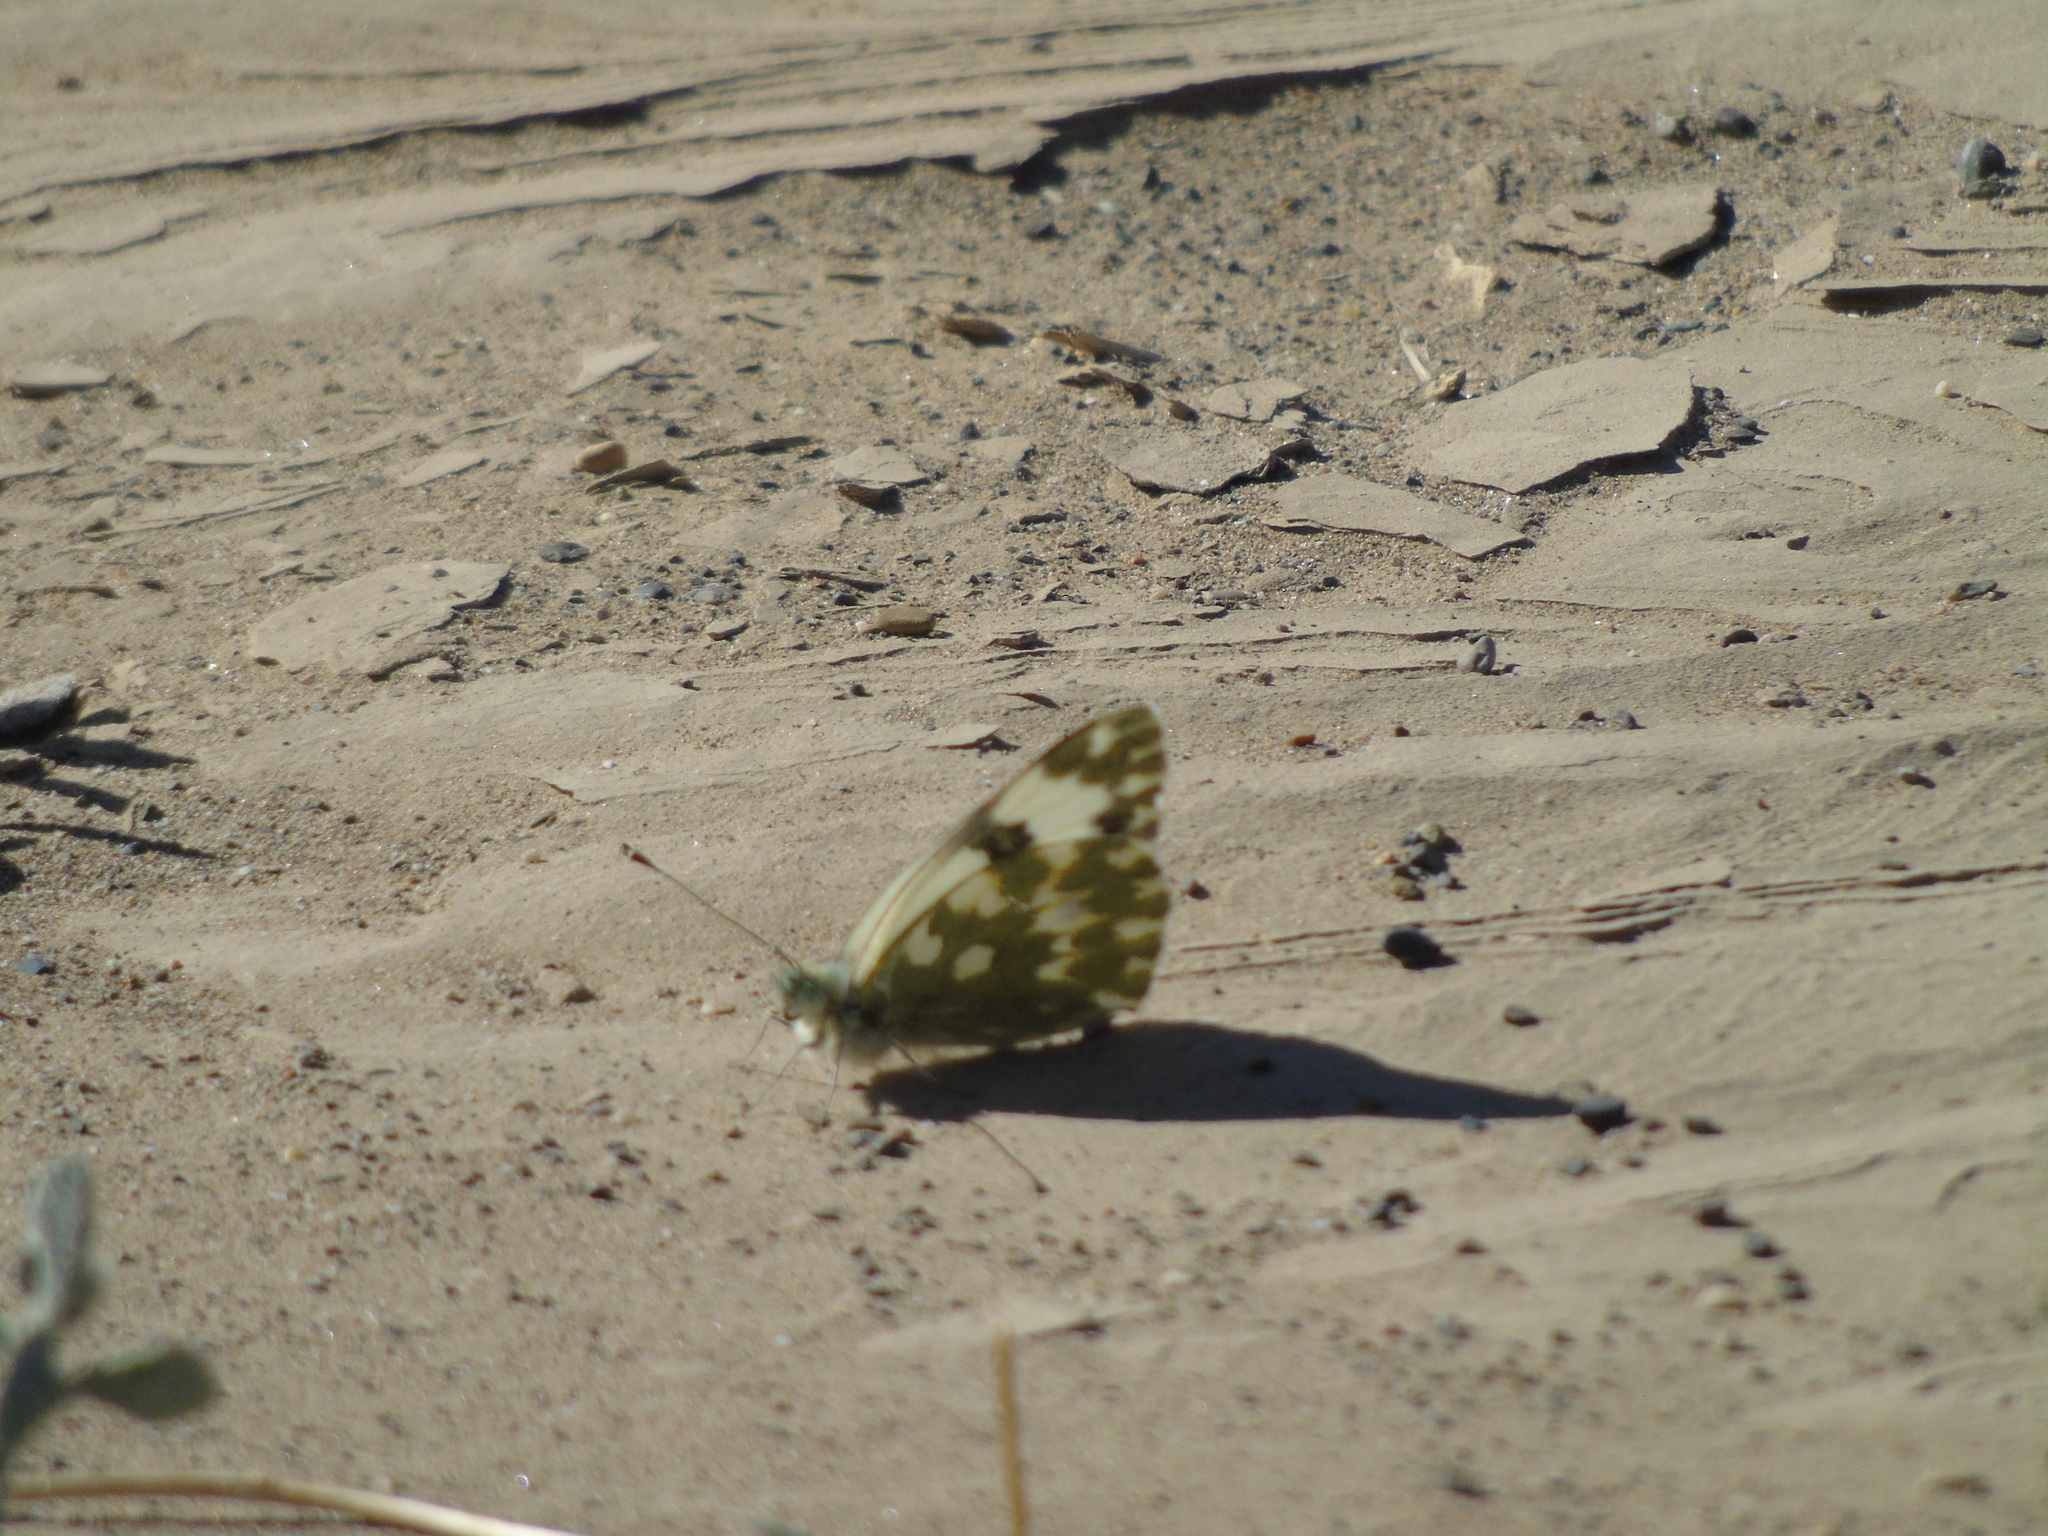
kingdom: Animalia
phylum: Arthropoda
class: Insecta
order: Lepidoptera
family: Pieridae
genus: Pontia
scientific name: Pontia daplidice
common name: Bath white
